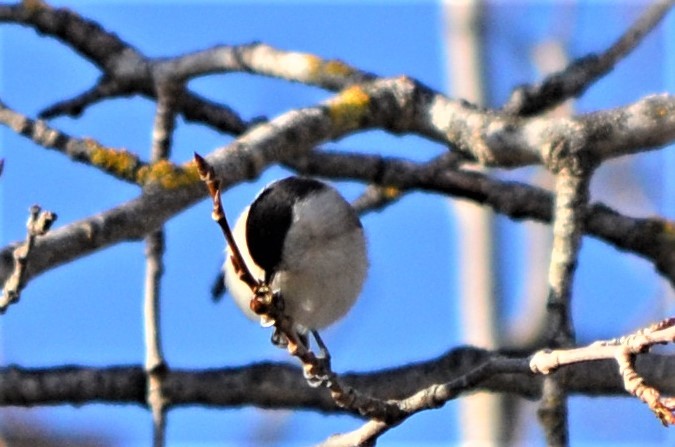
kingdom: Animalia
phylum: Chordata
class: Aves
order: Passeriformes
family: Paridae
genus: Poecile
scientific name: Poecile palustris
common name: Marsh tit
